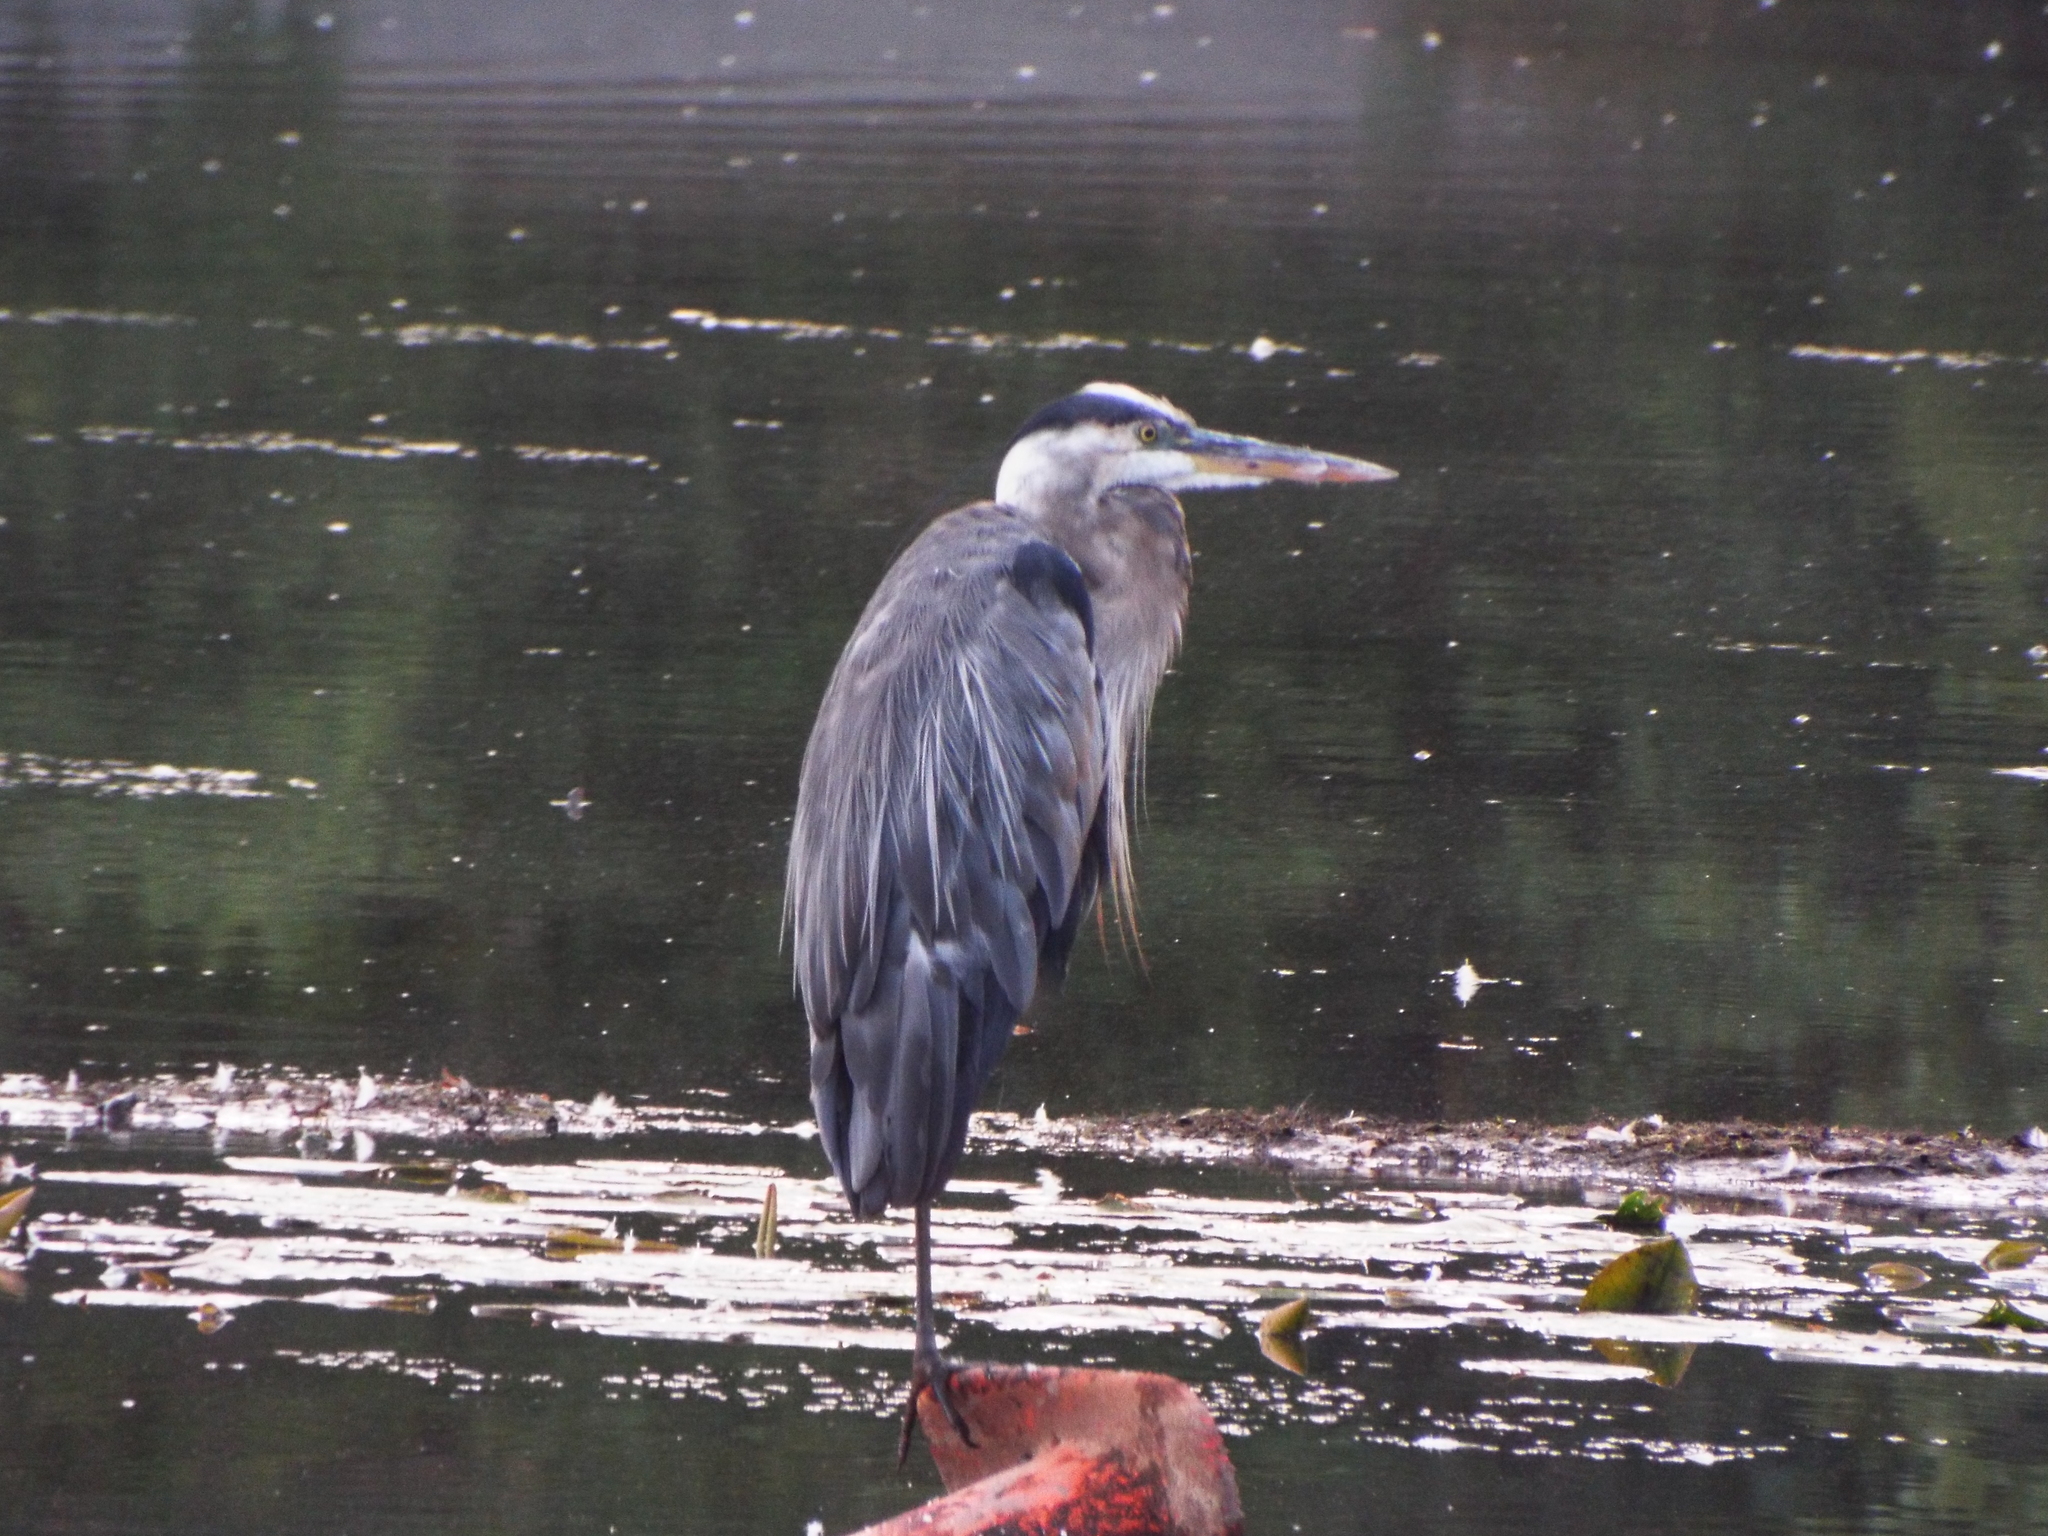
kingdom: Animalia
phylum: Chordata
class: Aves
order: Pelecaniformes
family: Ardeidae
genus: Ardea
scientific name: Ardea herodias
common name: Great blue heron
